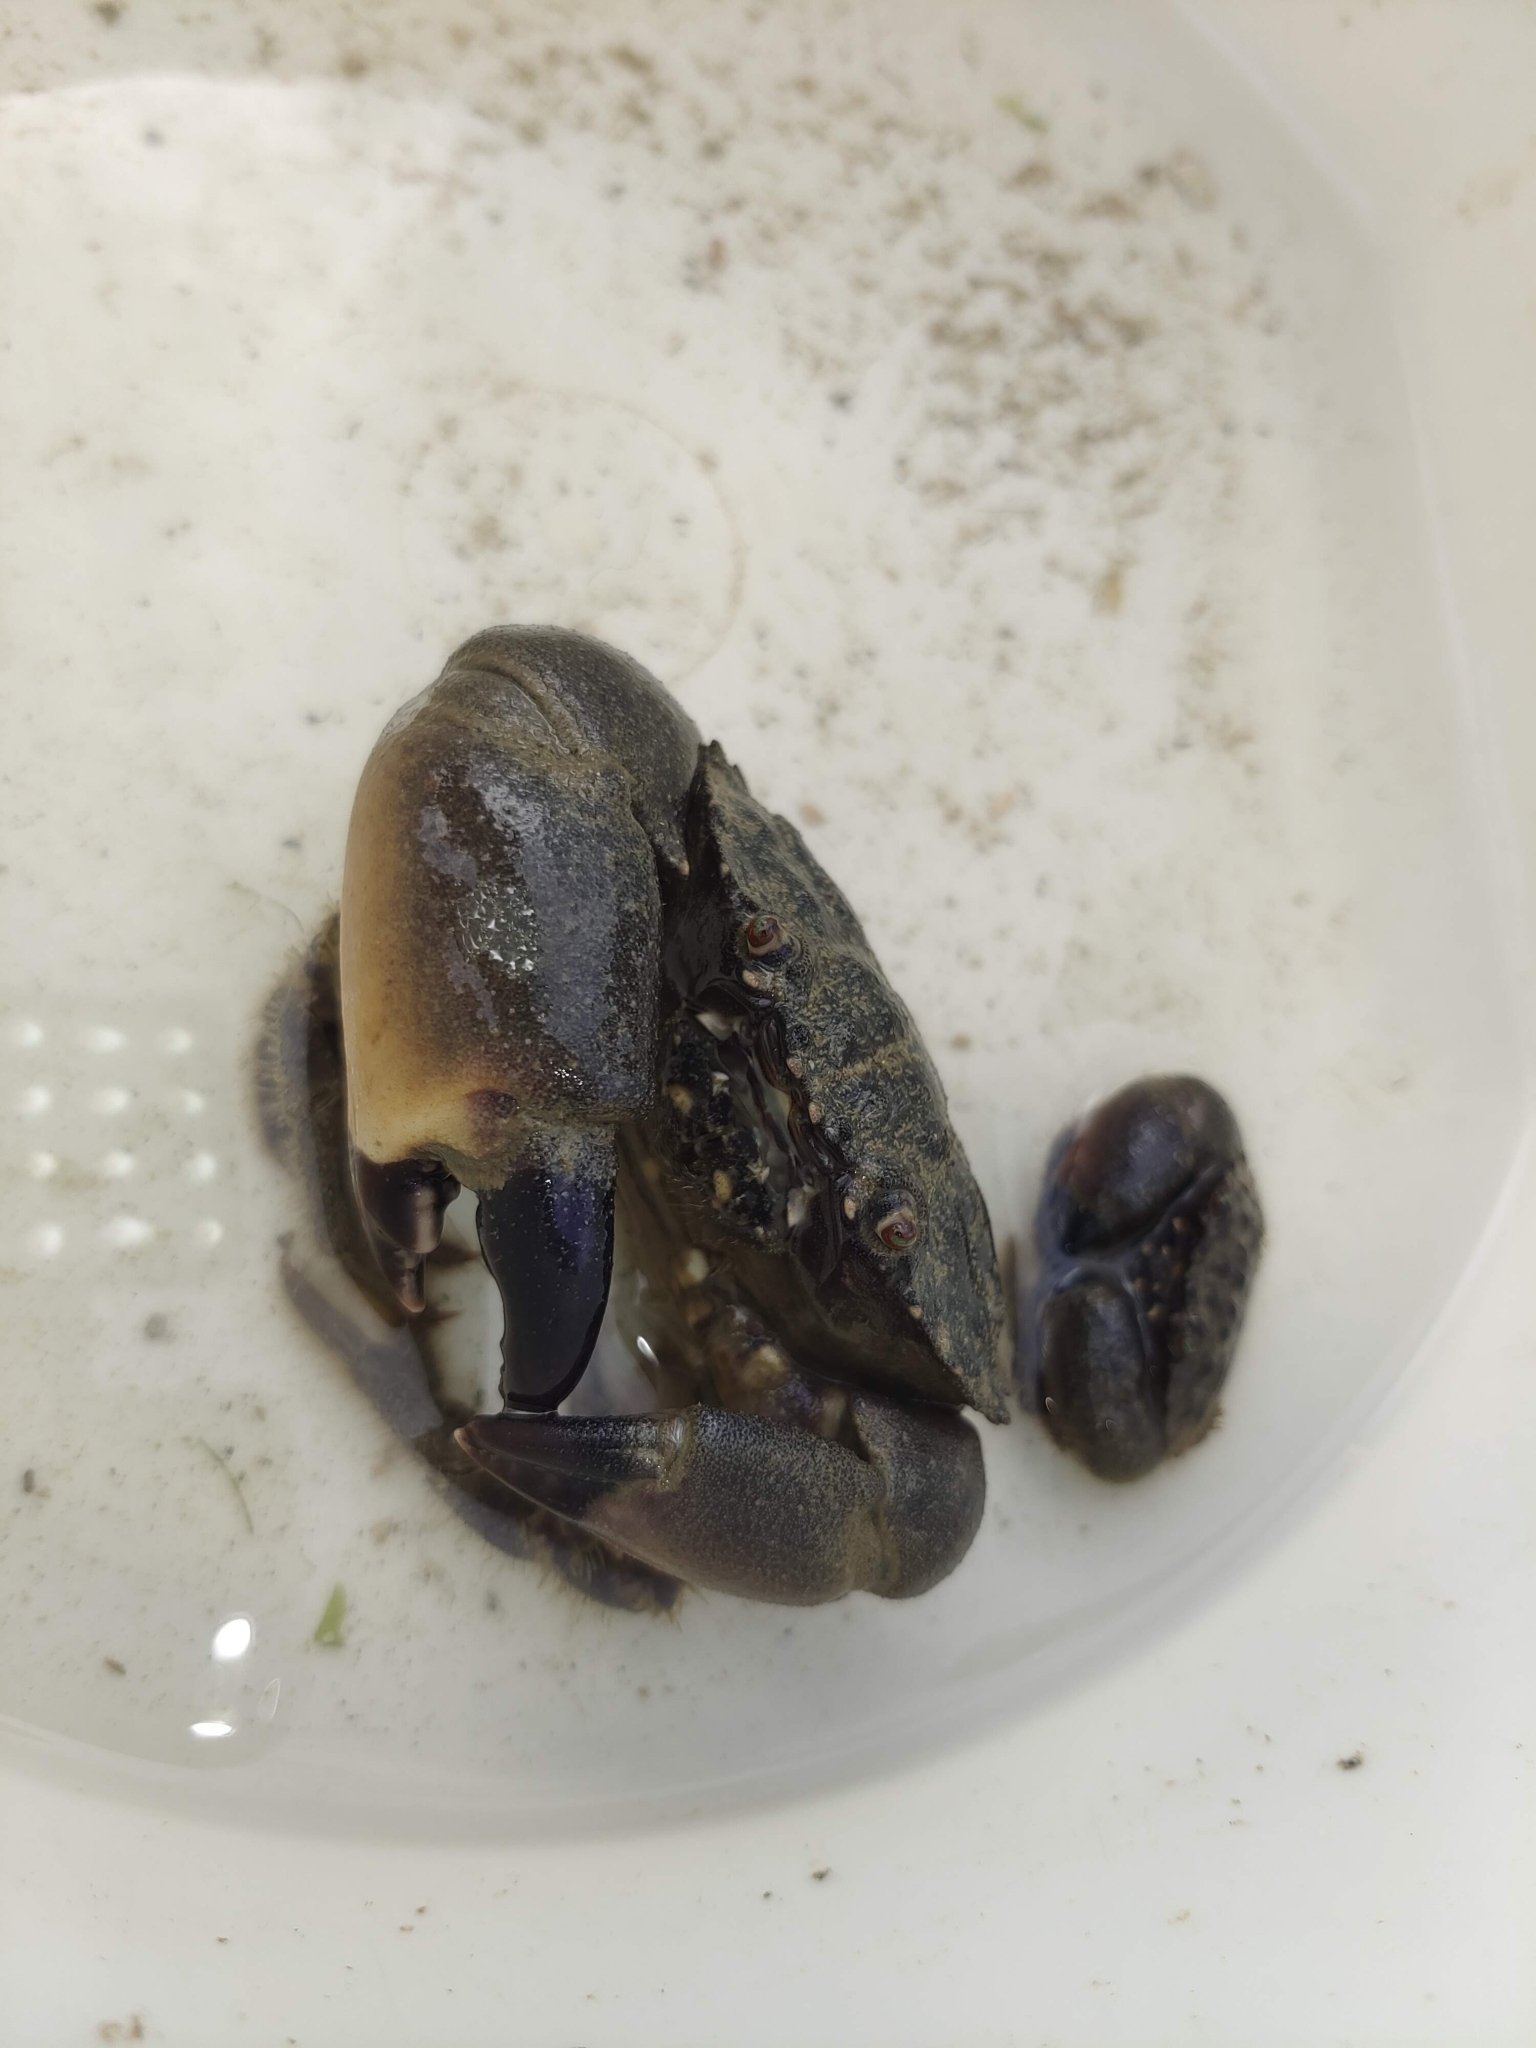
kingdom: Animalia
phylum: Arthropoda
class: Malacostraca
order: Decapoda
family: Menippidae
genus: Myomenippe
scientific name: Myomenippe hardwickii
